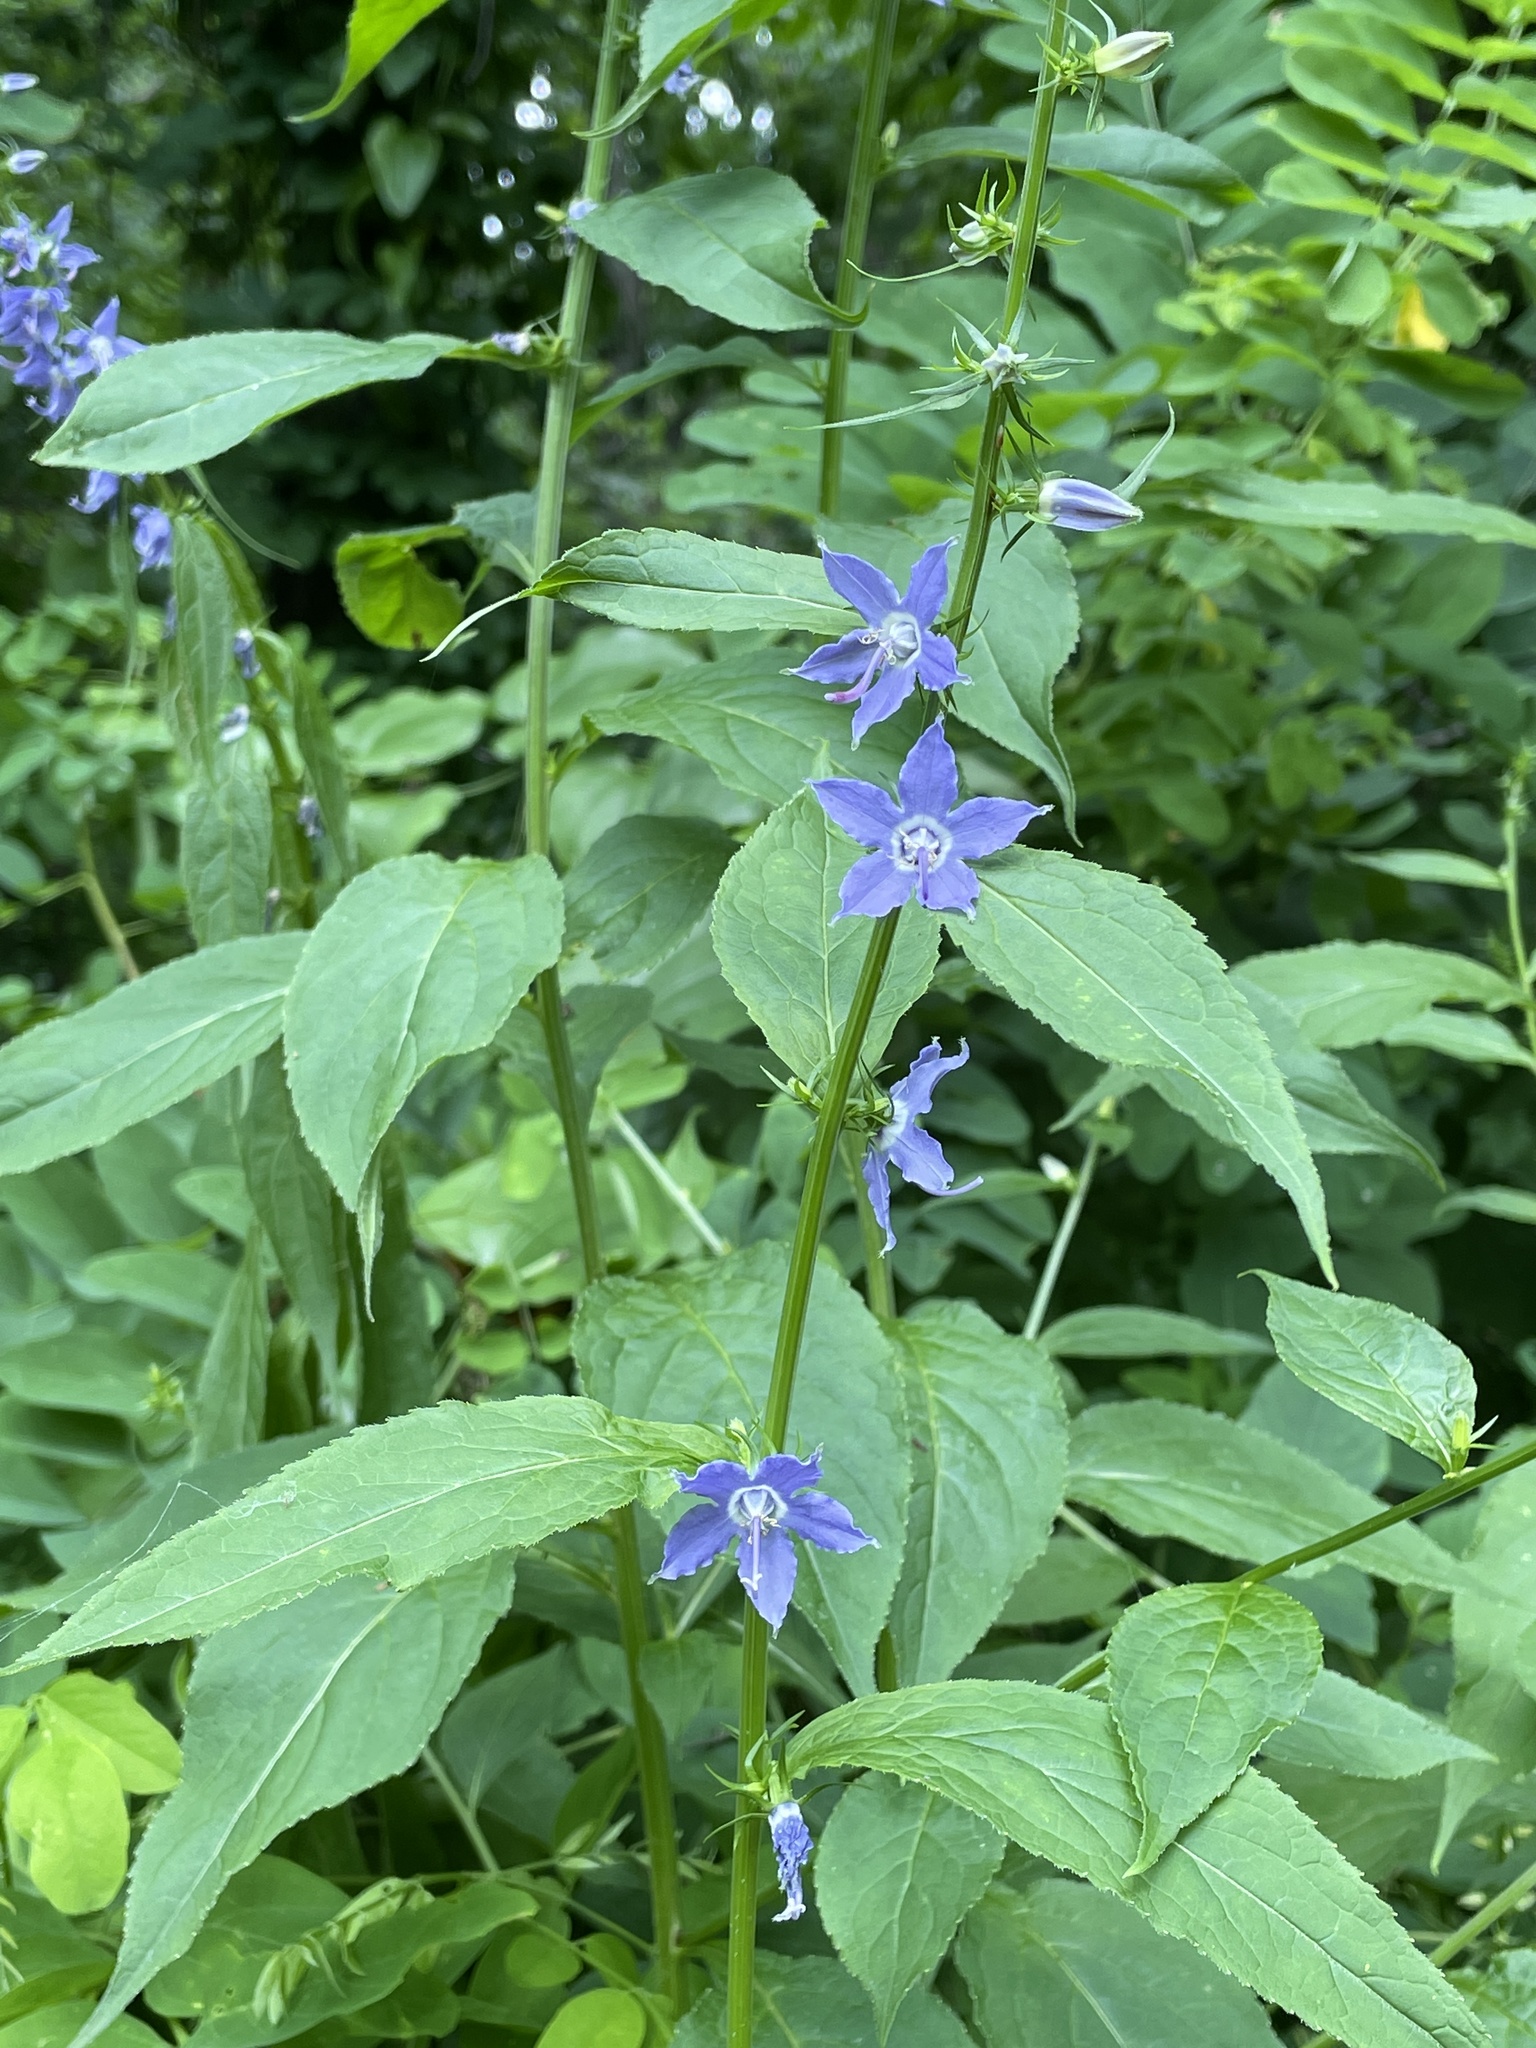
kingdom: Plantae
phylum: Tracheophyta
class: Magnoliopsida
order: Asterales
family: Campanulaceae
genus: Campanulastrum
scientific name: Campanulastrum americanum
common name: American bellflower
